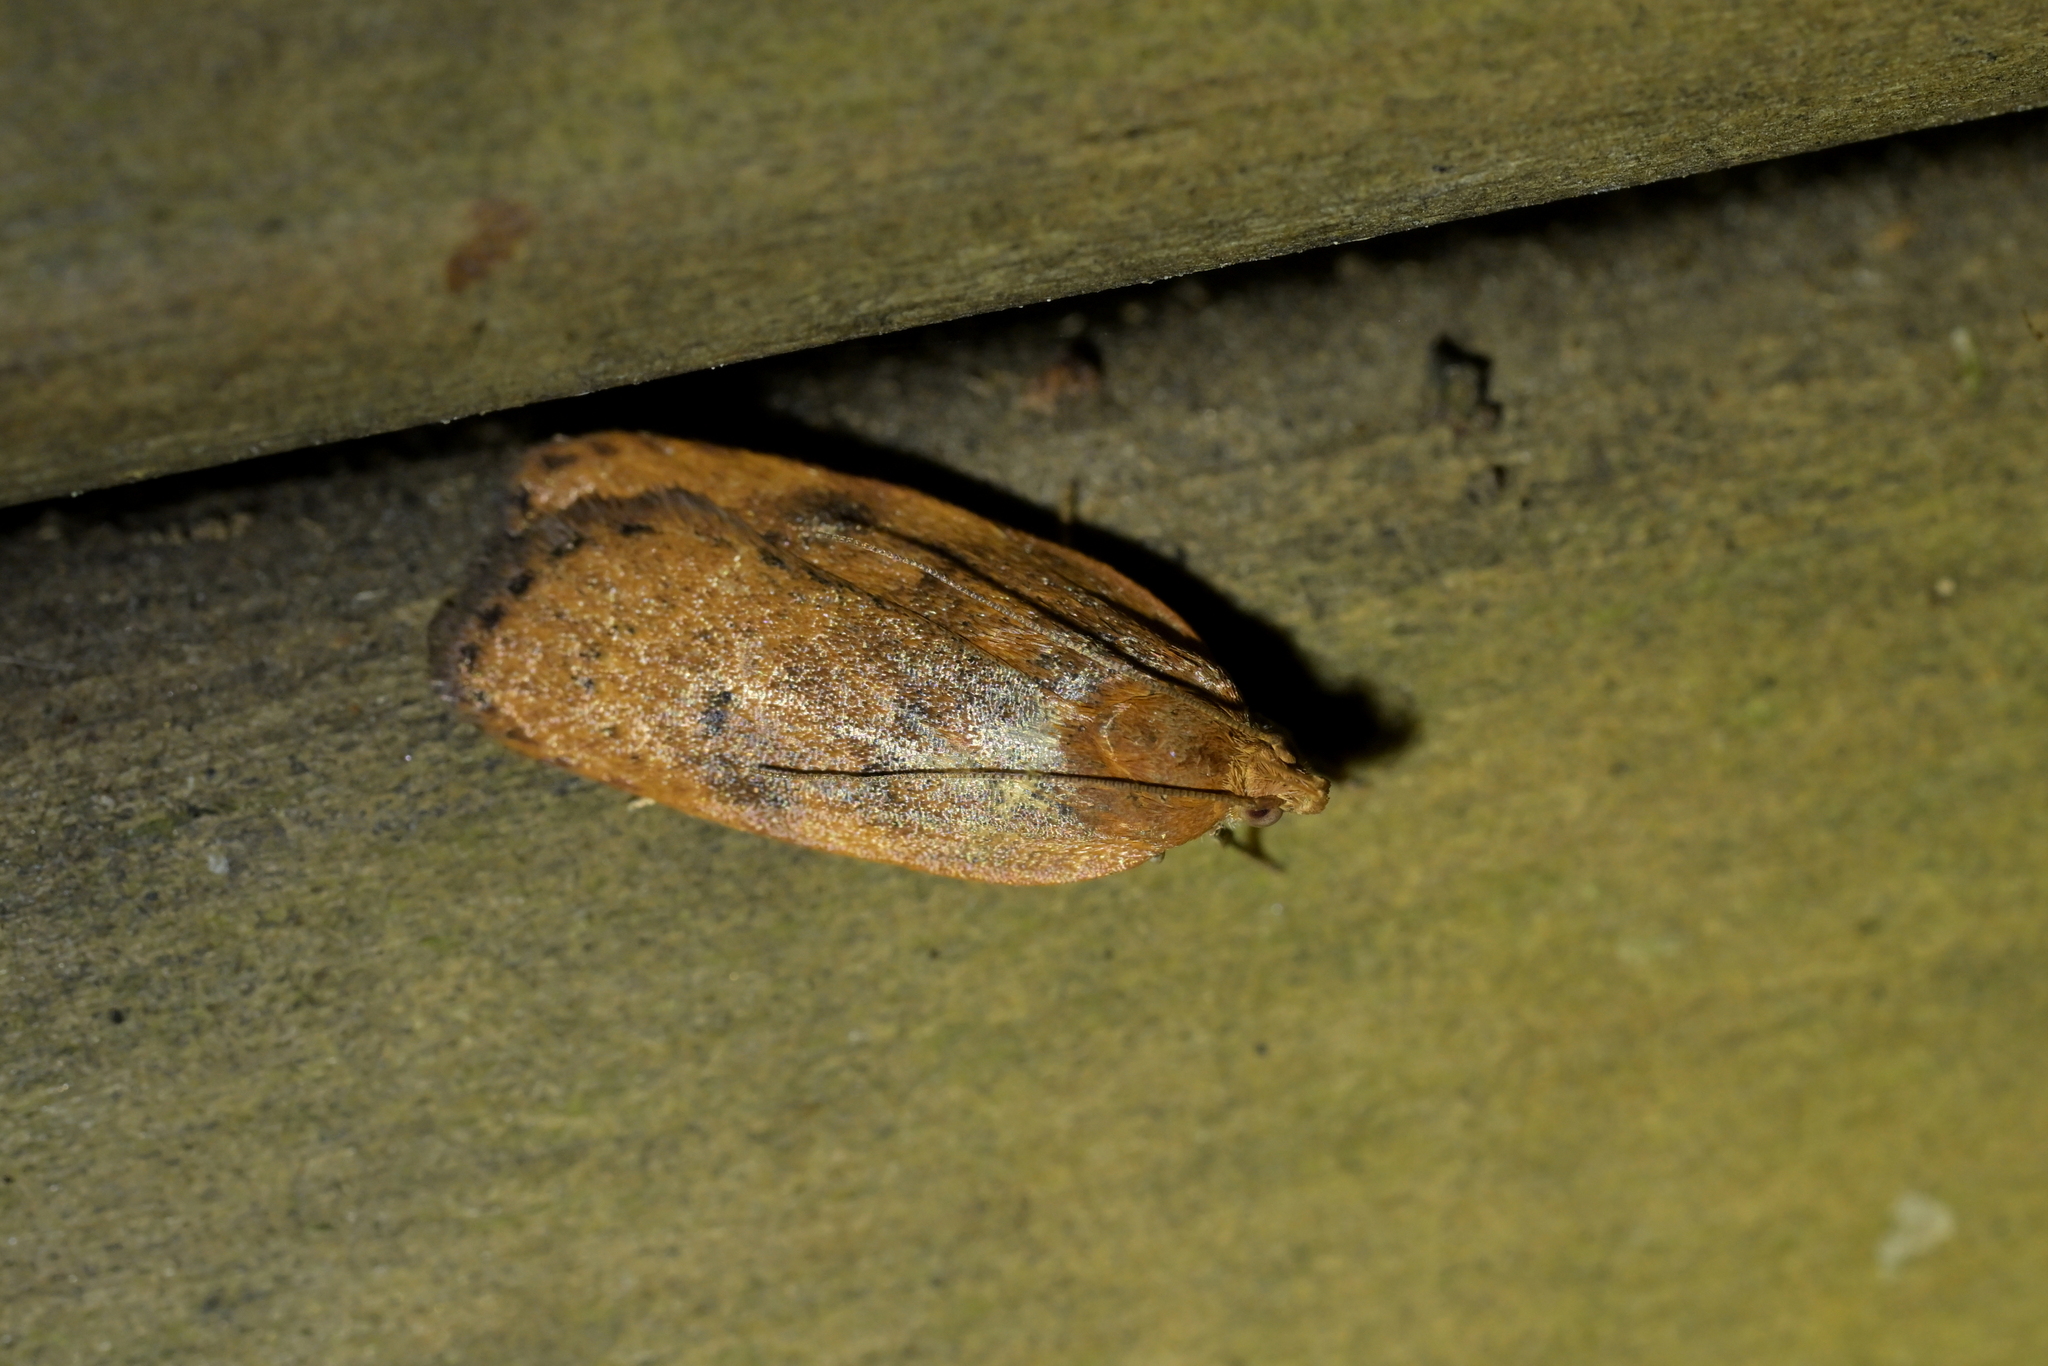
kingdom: Animalia
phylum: Arthropoda
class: Insecta
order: Lepidoptera
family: Depressariidae
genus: Phaeosaces
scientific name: Phaeosaces coarctatella
